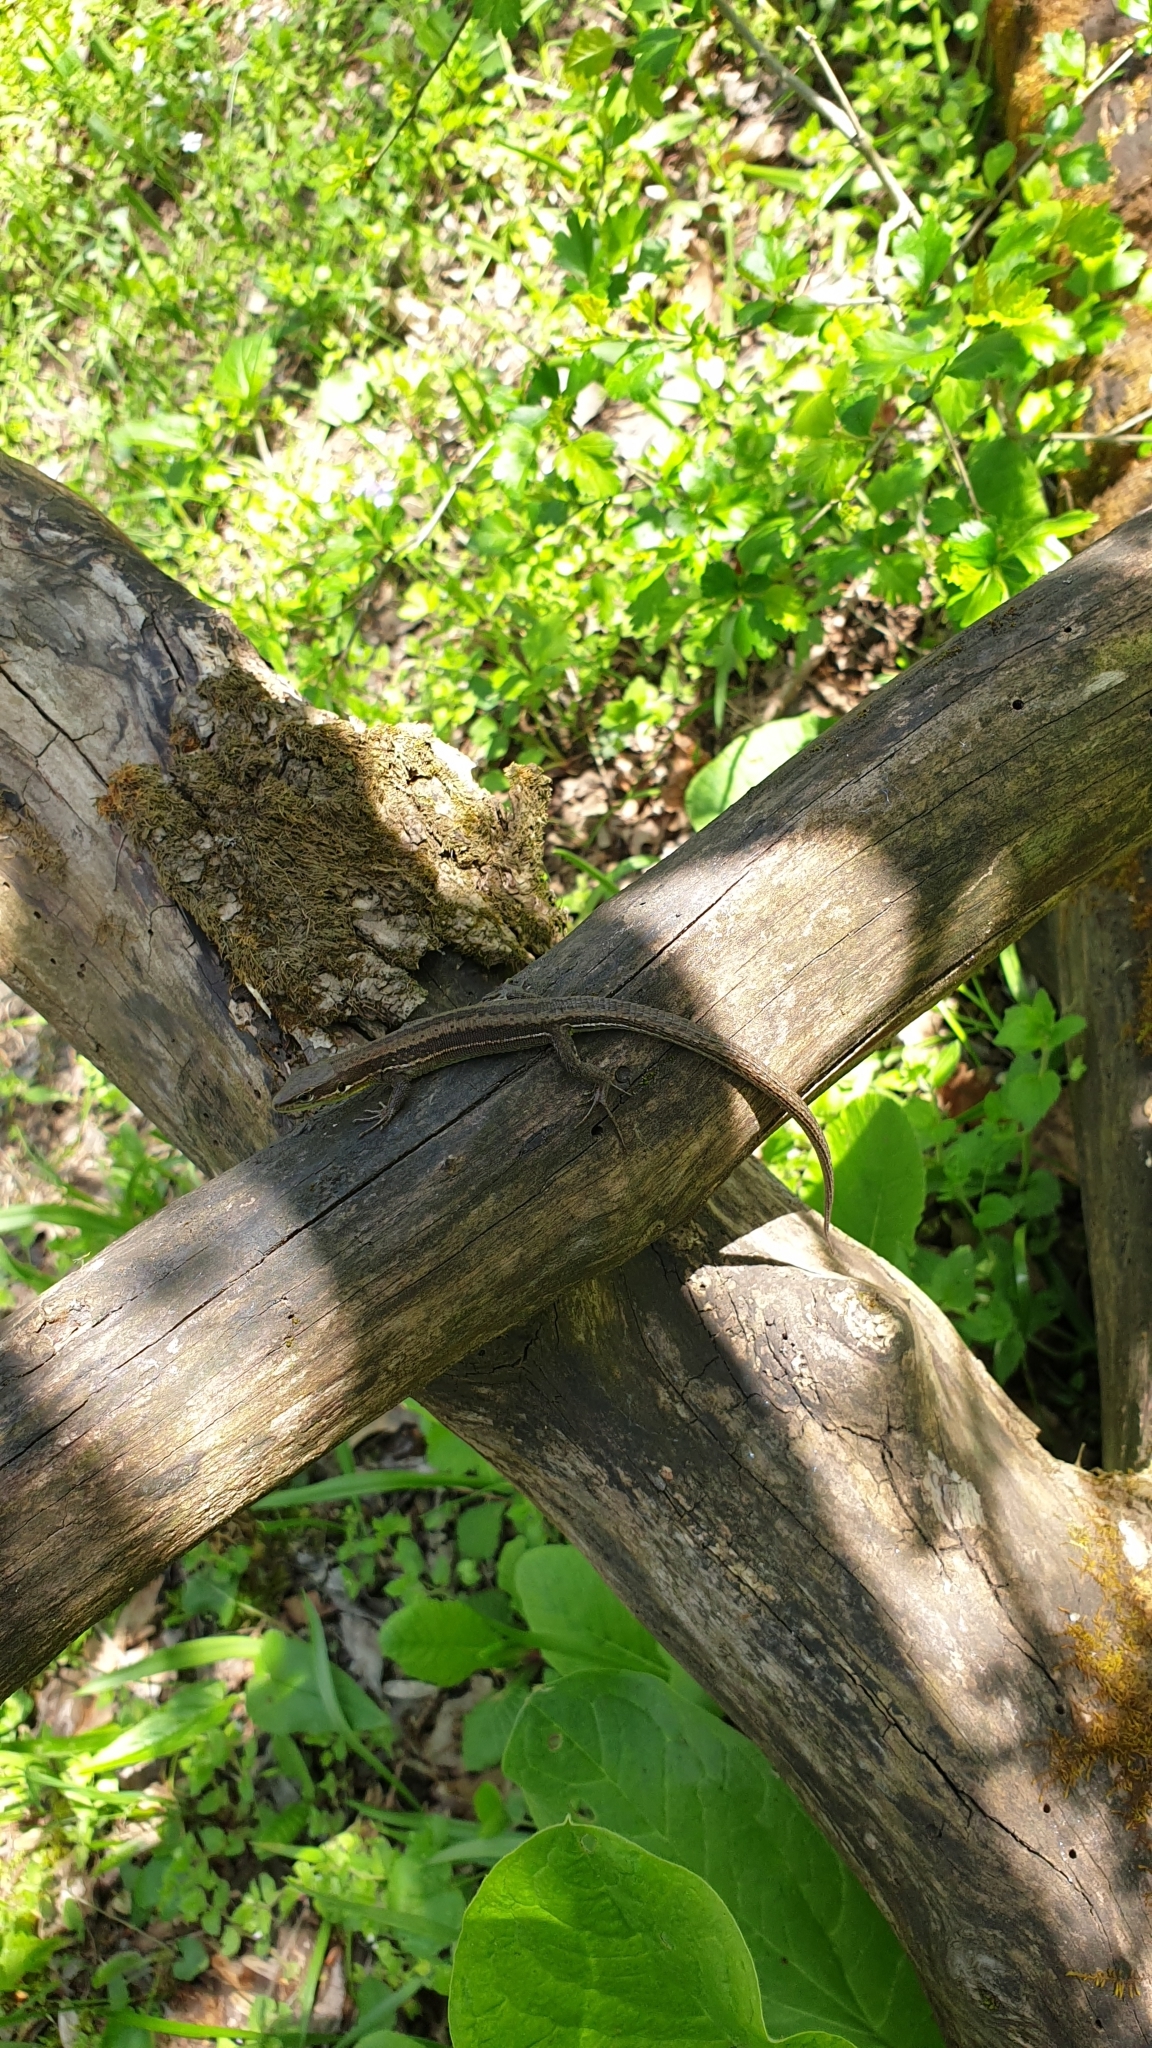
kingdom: Animalia
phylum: Chordata
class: Squamata
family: Lacertidae
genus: Darevskia
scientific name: Darevskia praticola
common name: Meadow lizard
